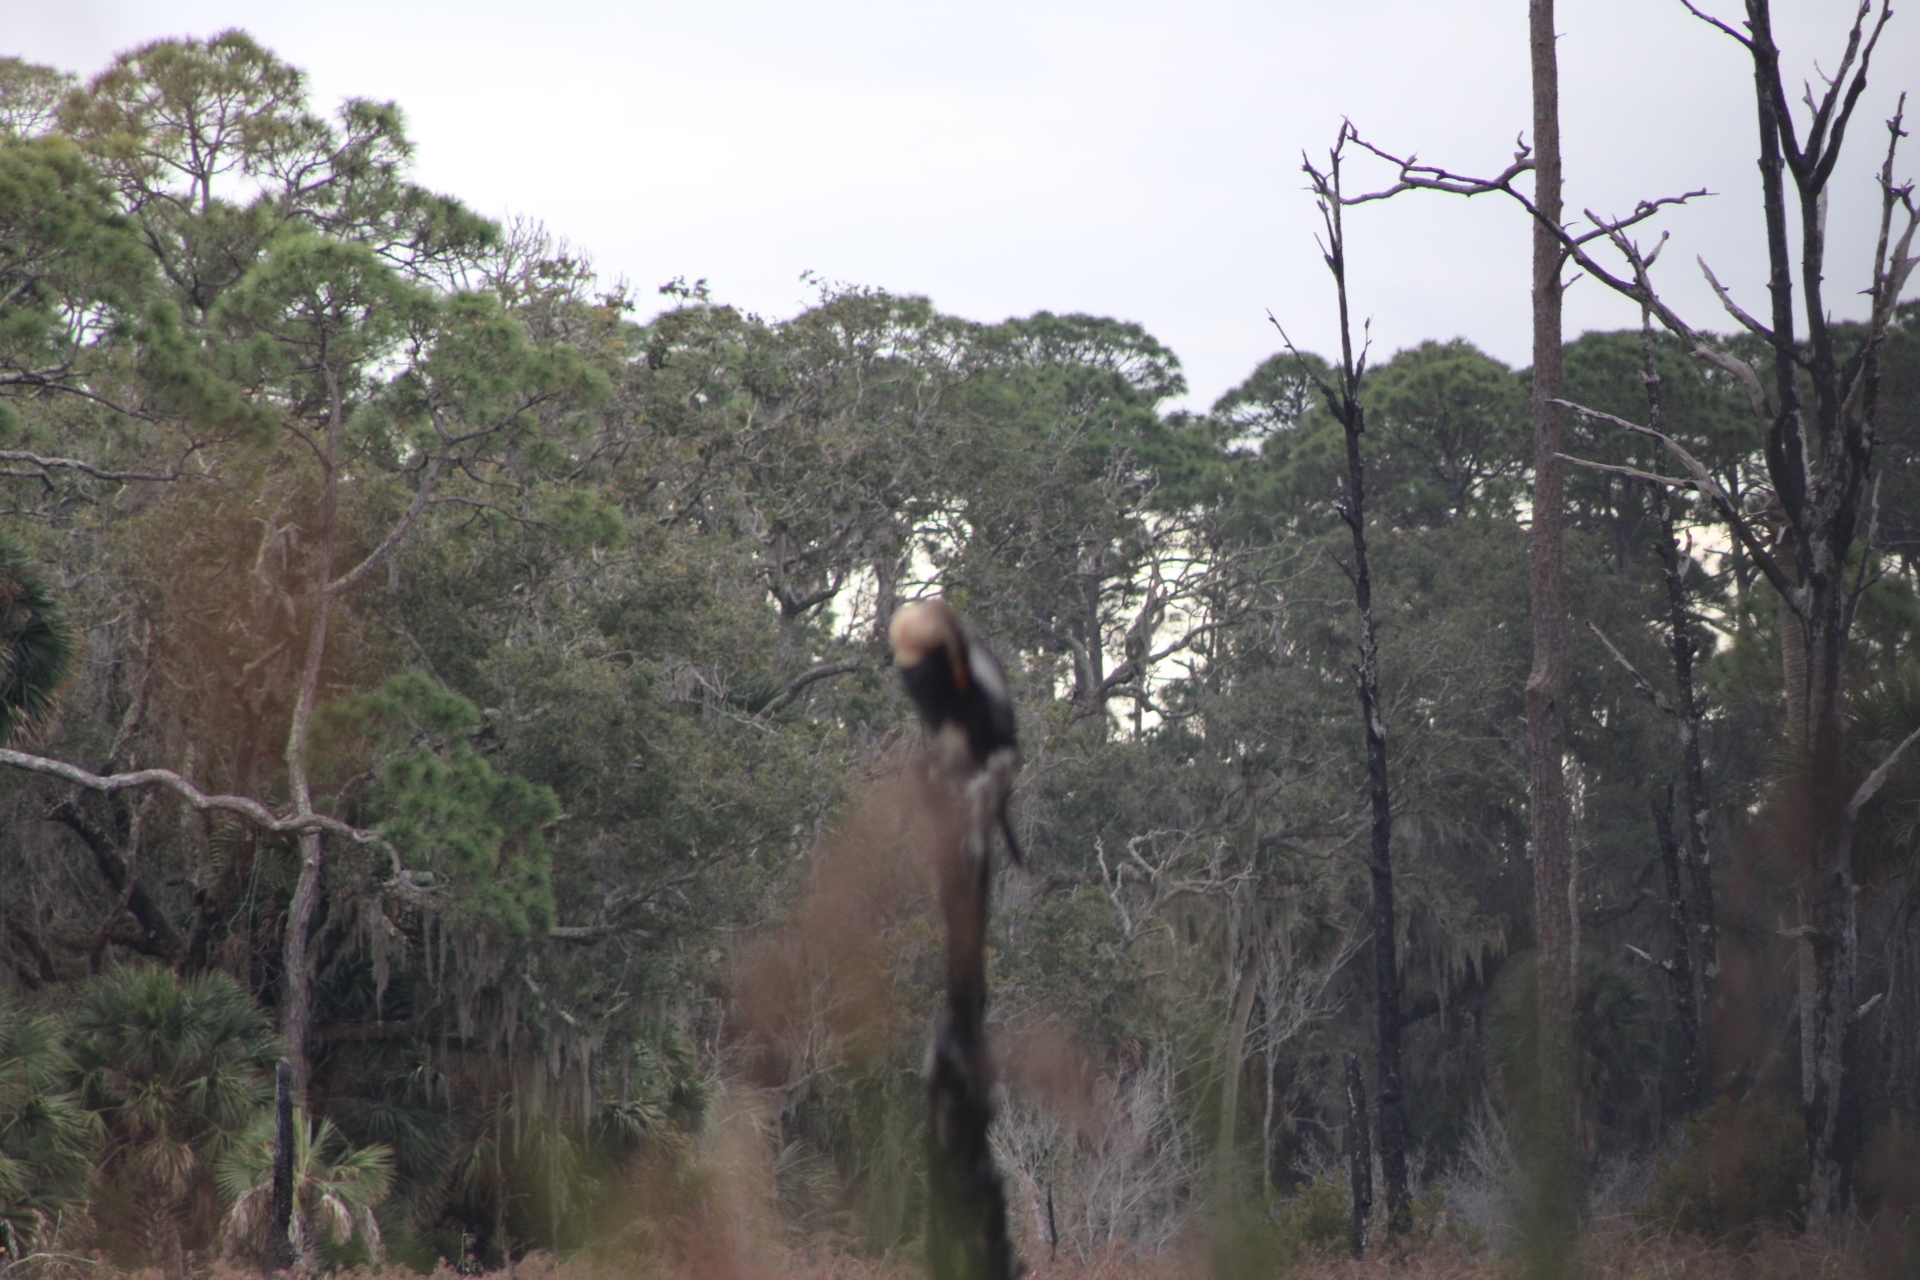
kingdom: Animalia
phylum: Chordata
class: Aves
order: Suliformes
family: Anhingidae
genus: Anhinga
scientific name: Anhinga anhinga
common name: Anhinga
